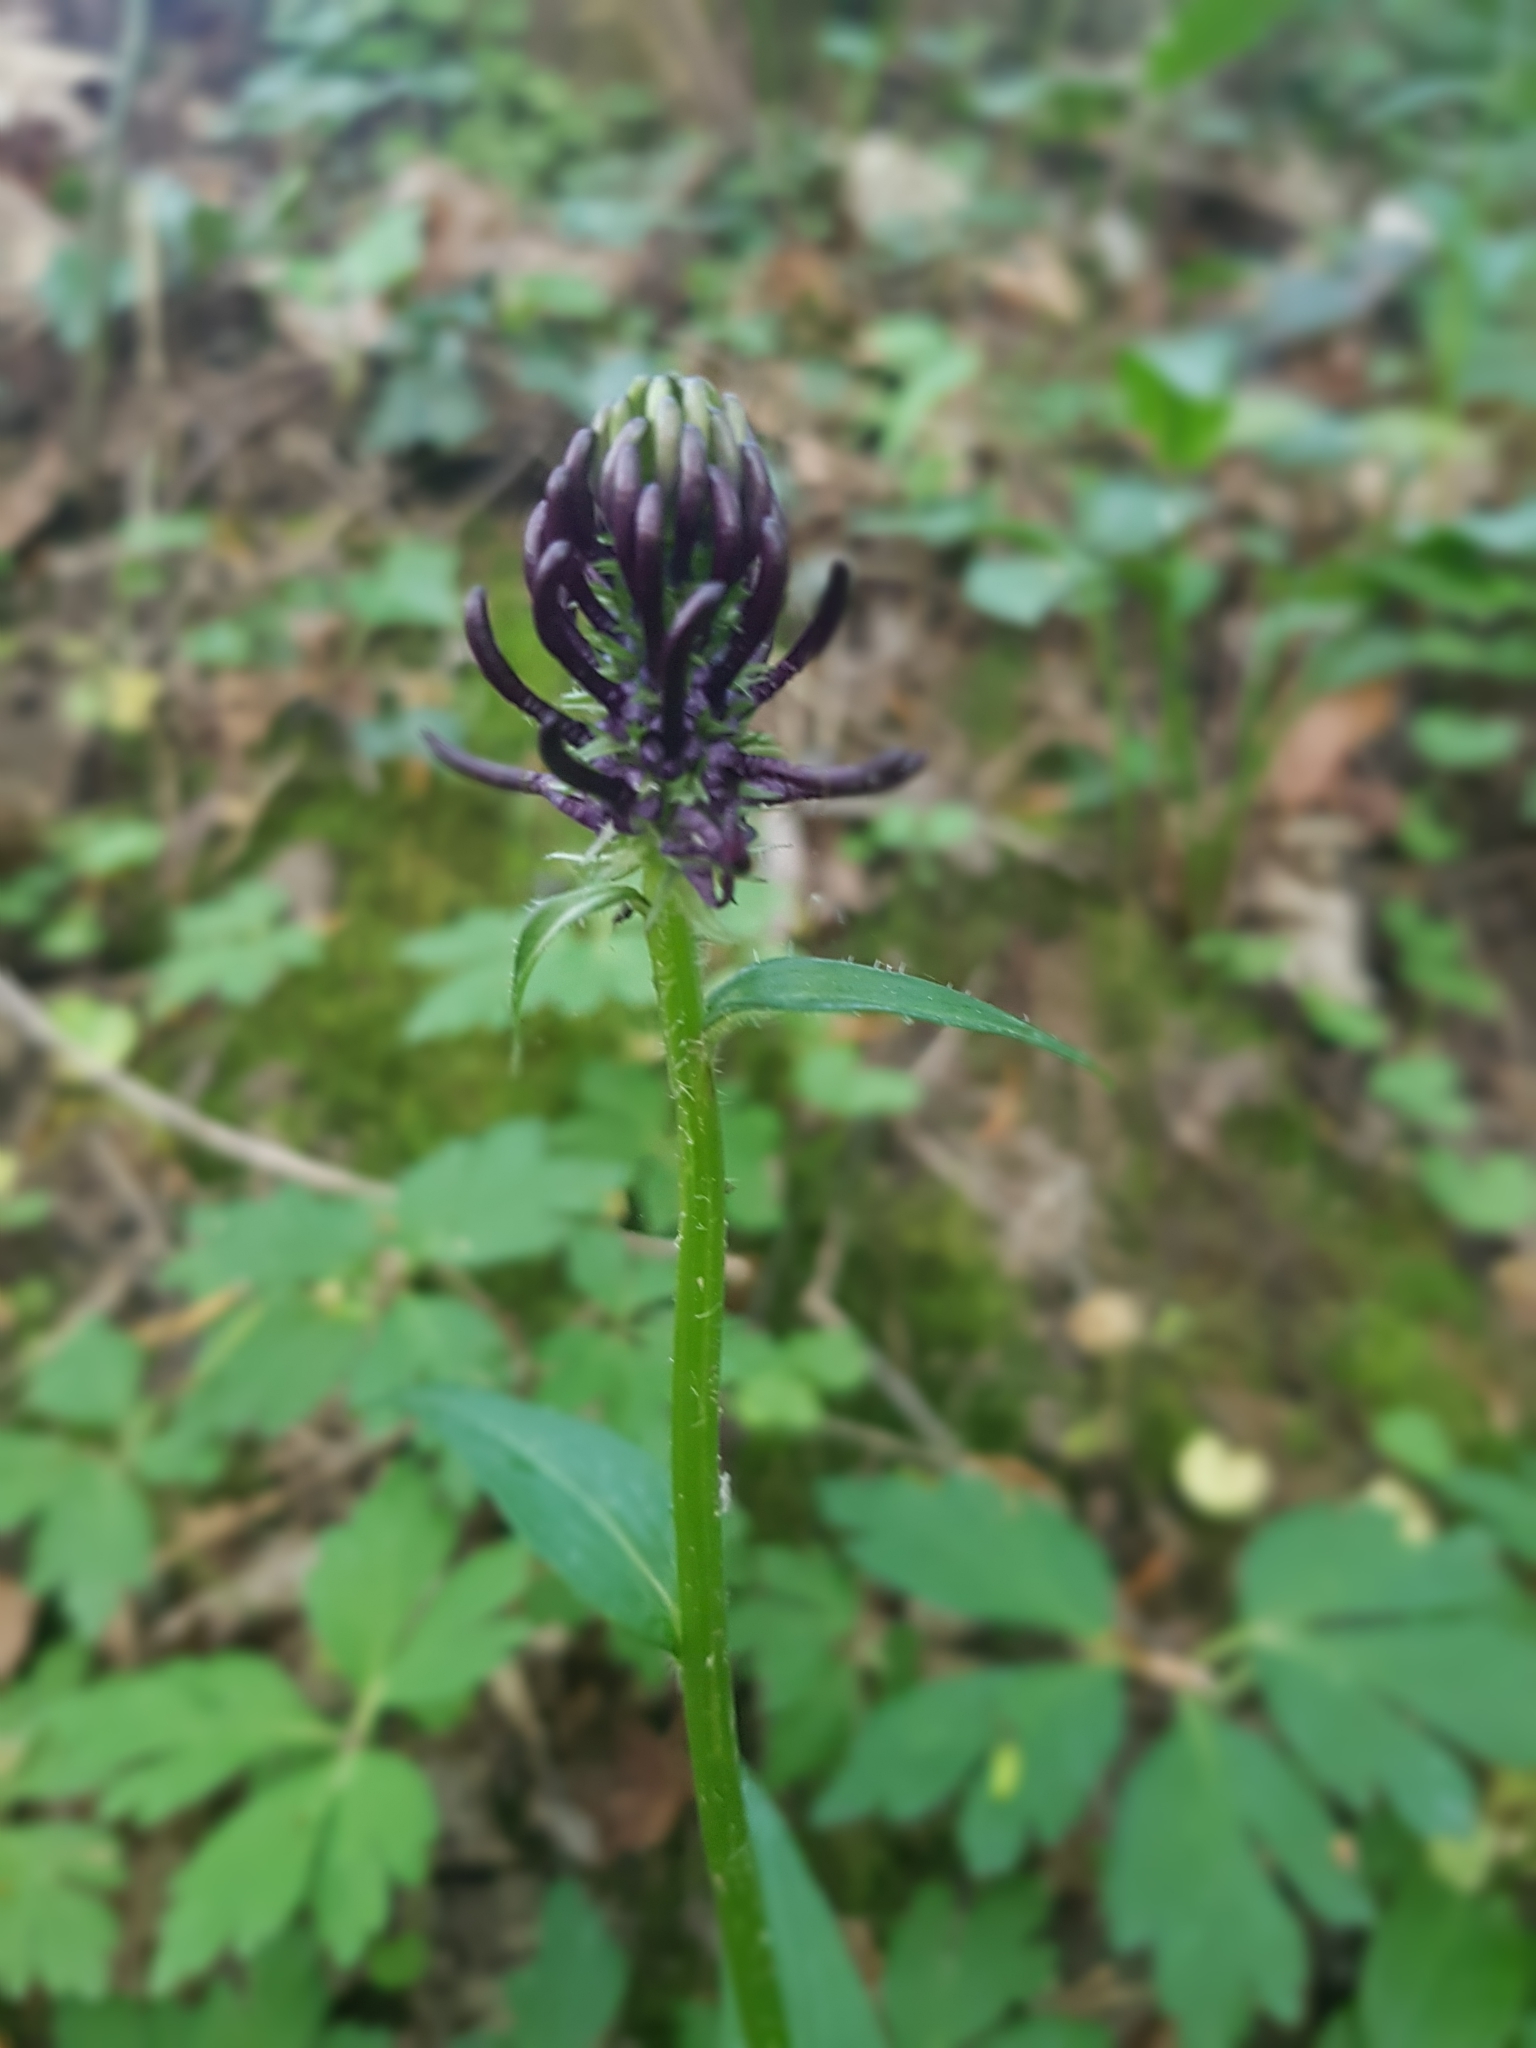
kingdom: Plantae
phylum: Tracheophyta
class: Magnoliopsida
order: Asterales
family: Campanulaceae
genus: Phyteuma
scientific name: Phyteuma nigrum
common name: Black rampion
